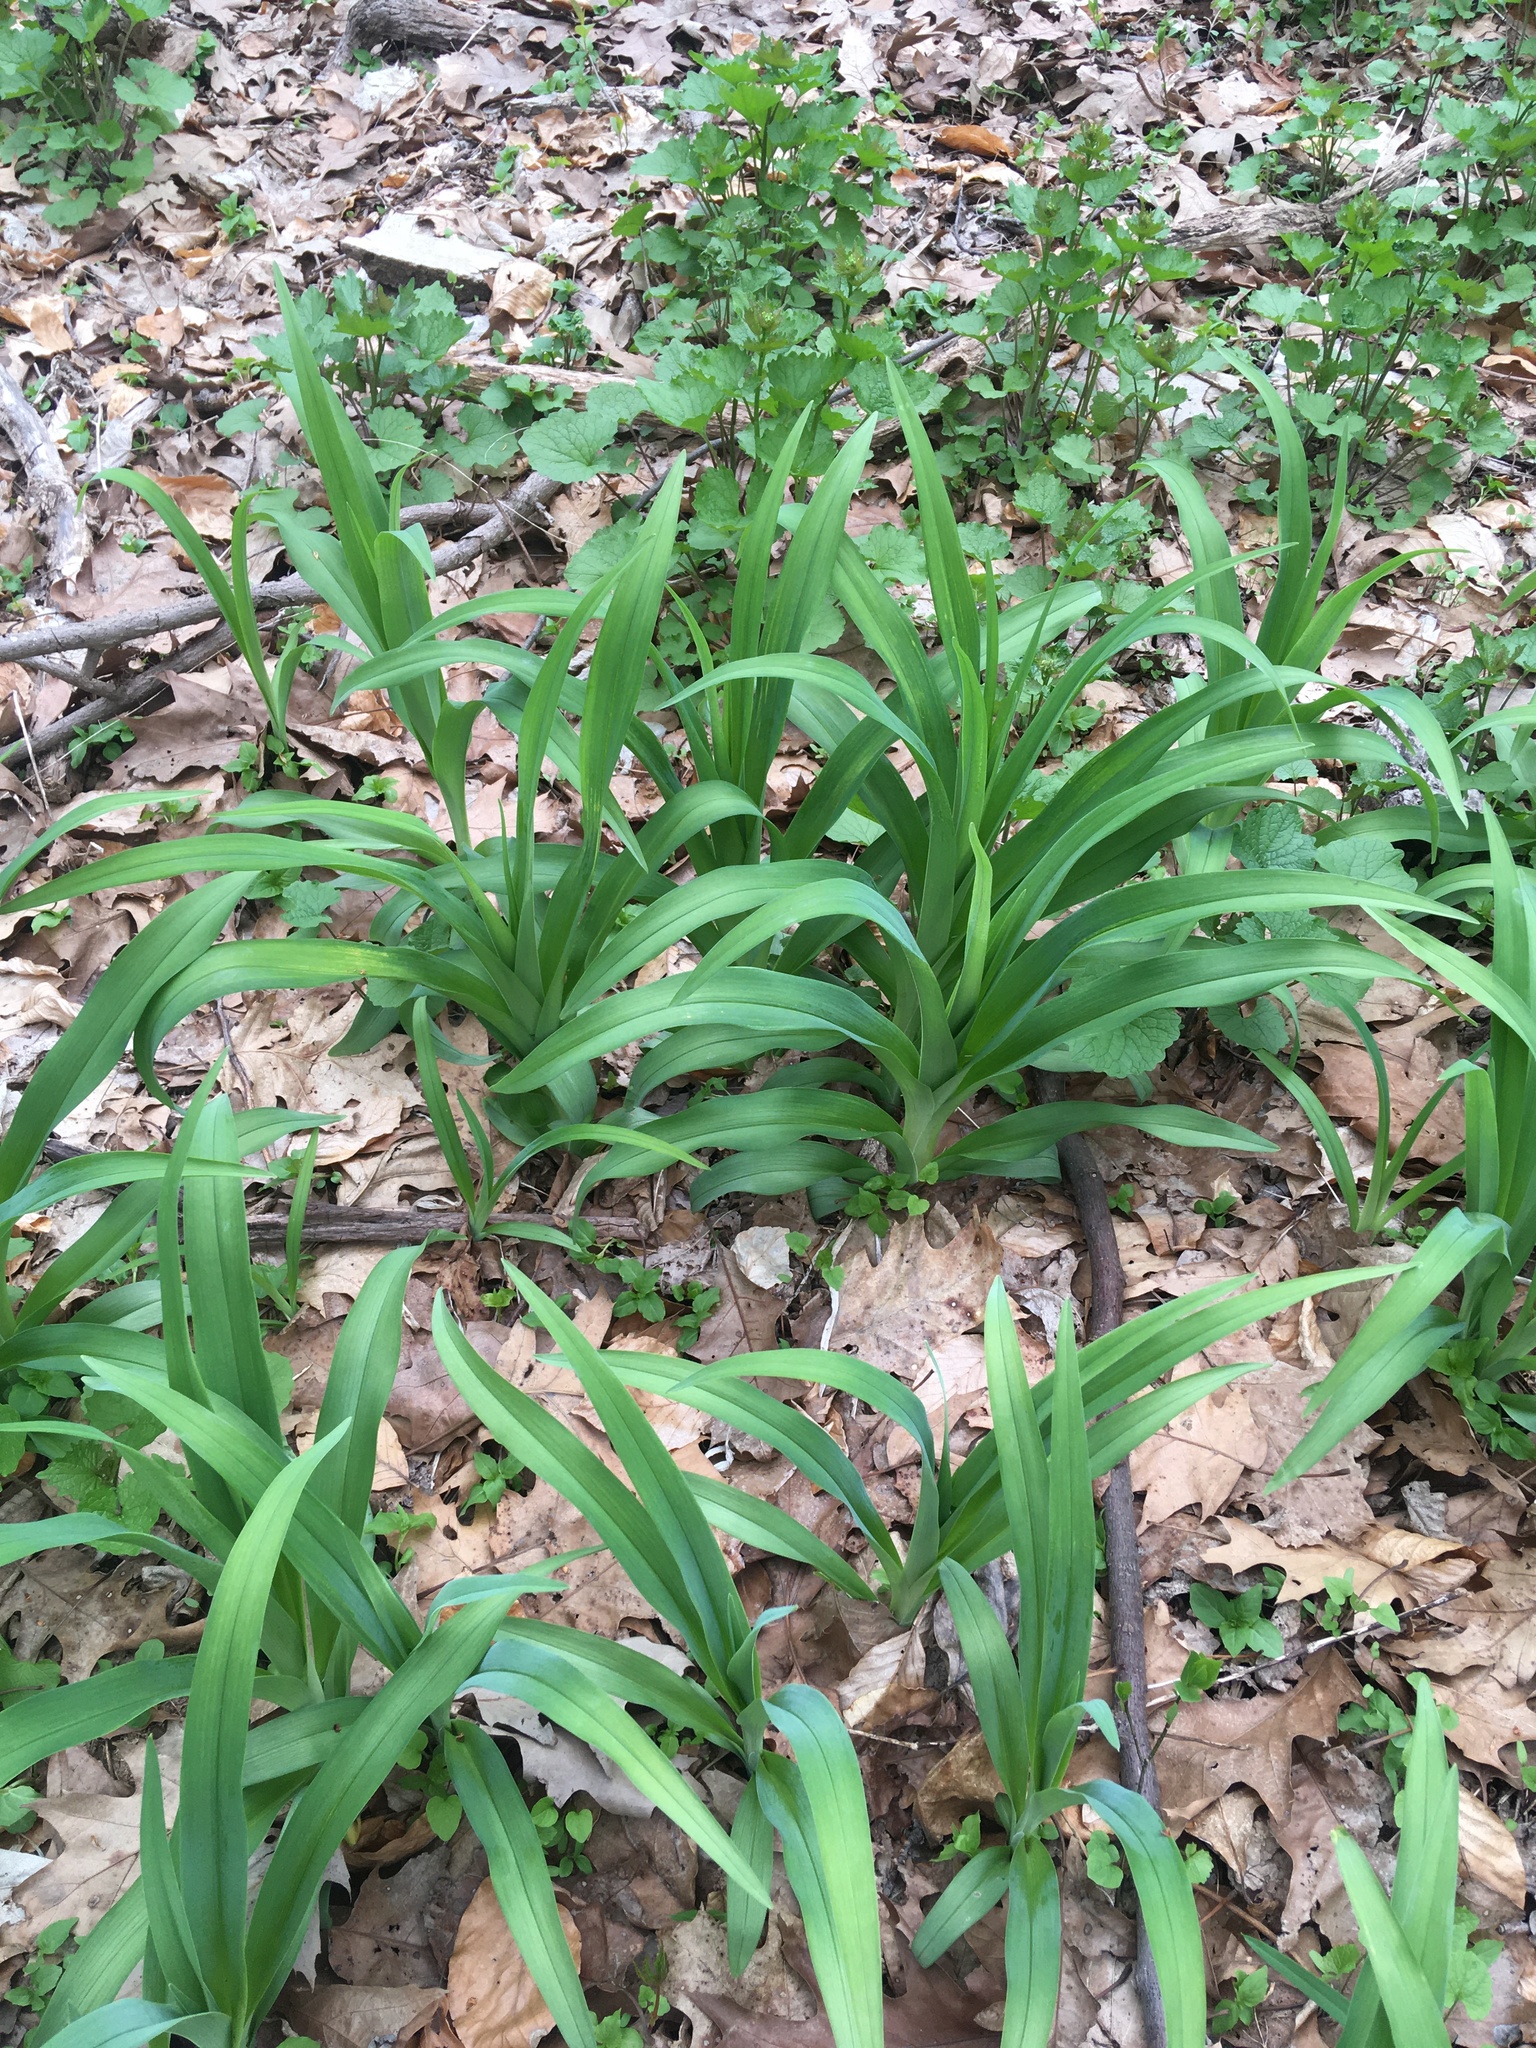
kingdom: Plantae
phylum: Tracheophyta
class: Liliopsida
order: Asparagales
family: Asphodelaceae
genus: Hemerocallis
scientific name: Hemerocallis fulva
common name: Orange day-lily
